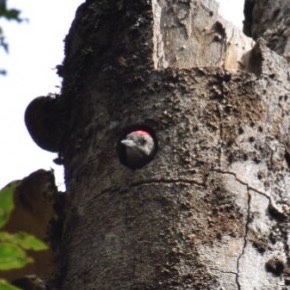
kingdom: Animalia
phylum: Chordata
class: Aves
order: Piciformes
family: Picidae
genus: Dendropicos
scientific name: Dendropicos griseocephalus
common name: Olive woodpecker
